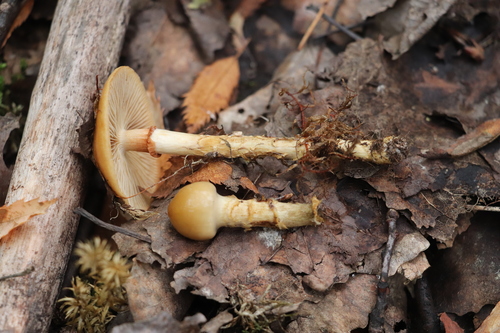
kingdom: Fungi
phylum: Basidiomycota
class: Agaricomycetes
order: Agaricales
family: Cortinariaceae
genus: Cortinarius
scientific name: Cortinarius trivialis
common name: Girdled webcap
